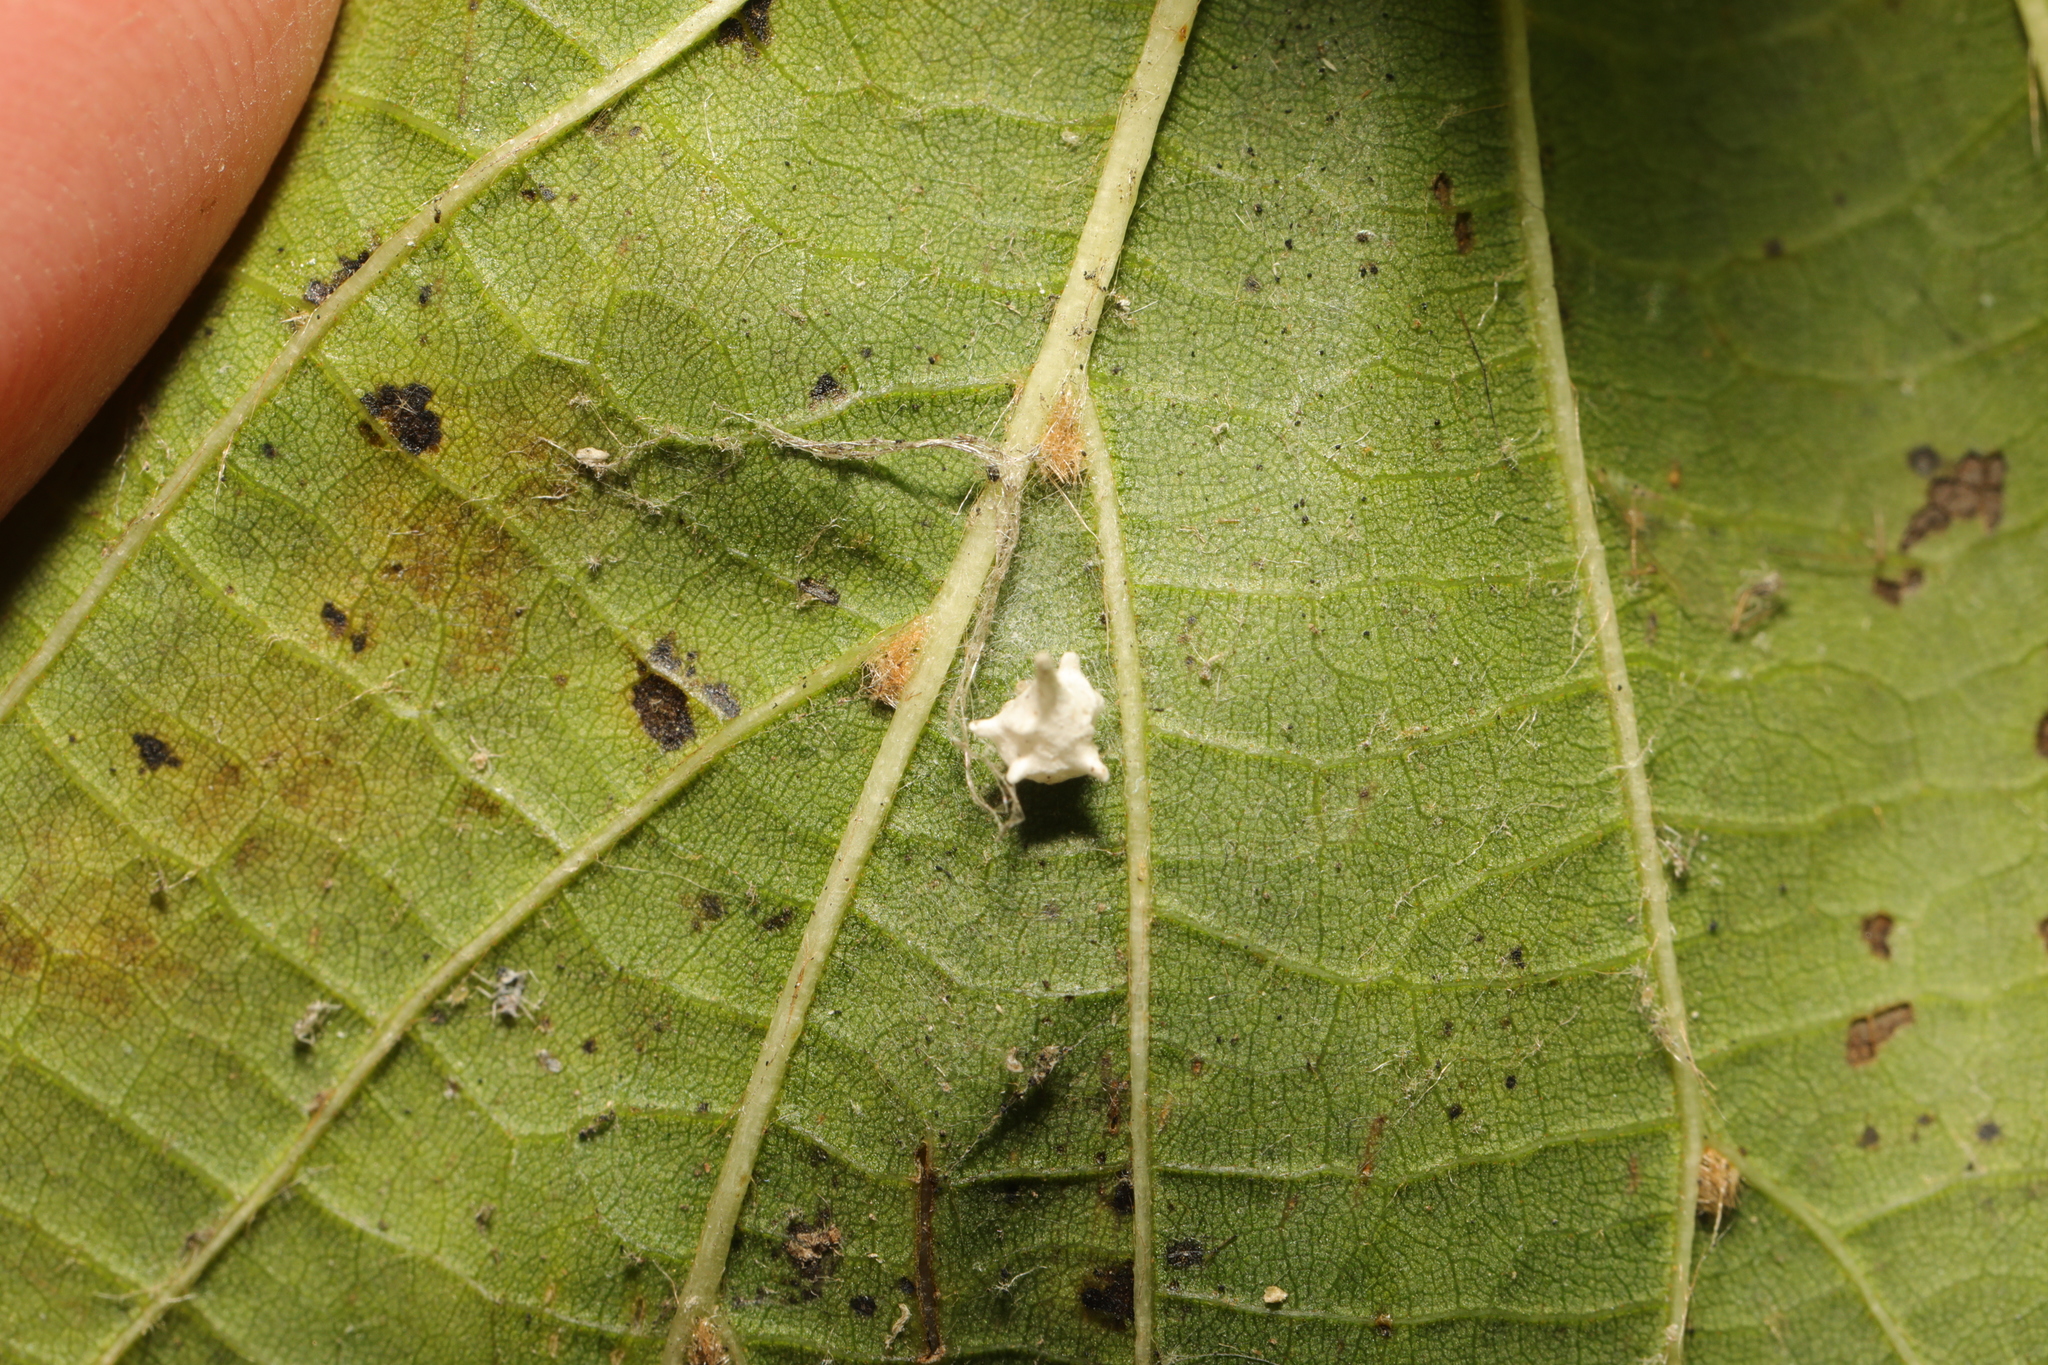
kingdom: Animalia
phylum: Arthropoda
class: Arachnida
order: Araneae
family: Theridiidae
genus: Paidiscura
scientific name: Paidiscura pallens
